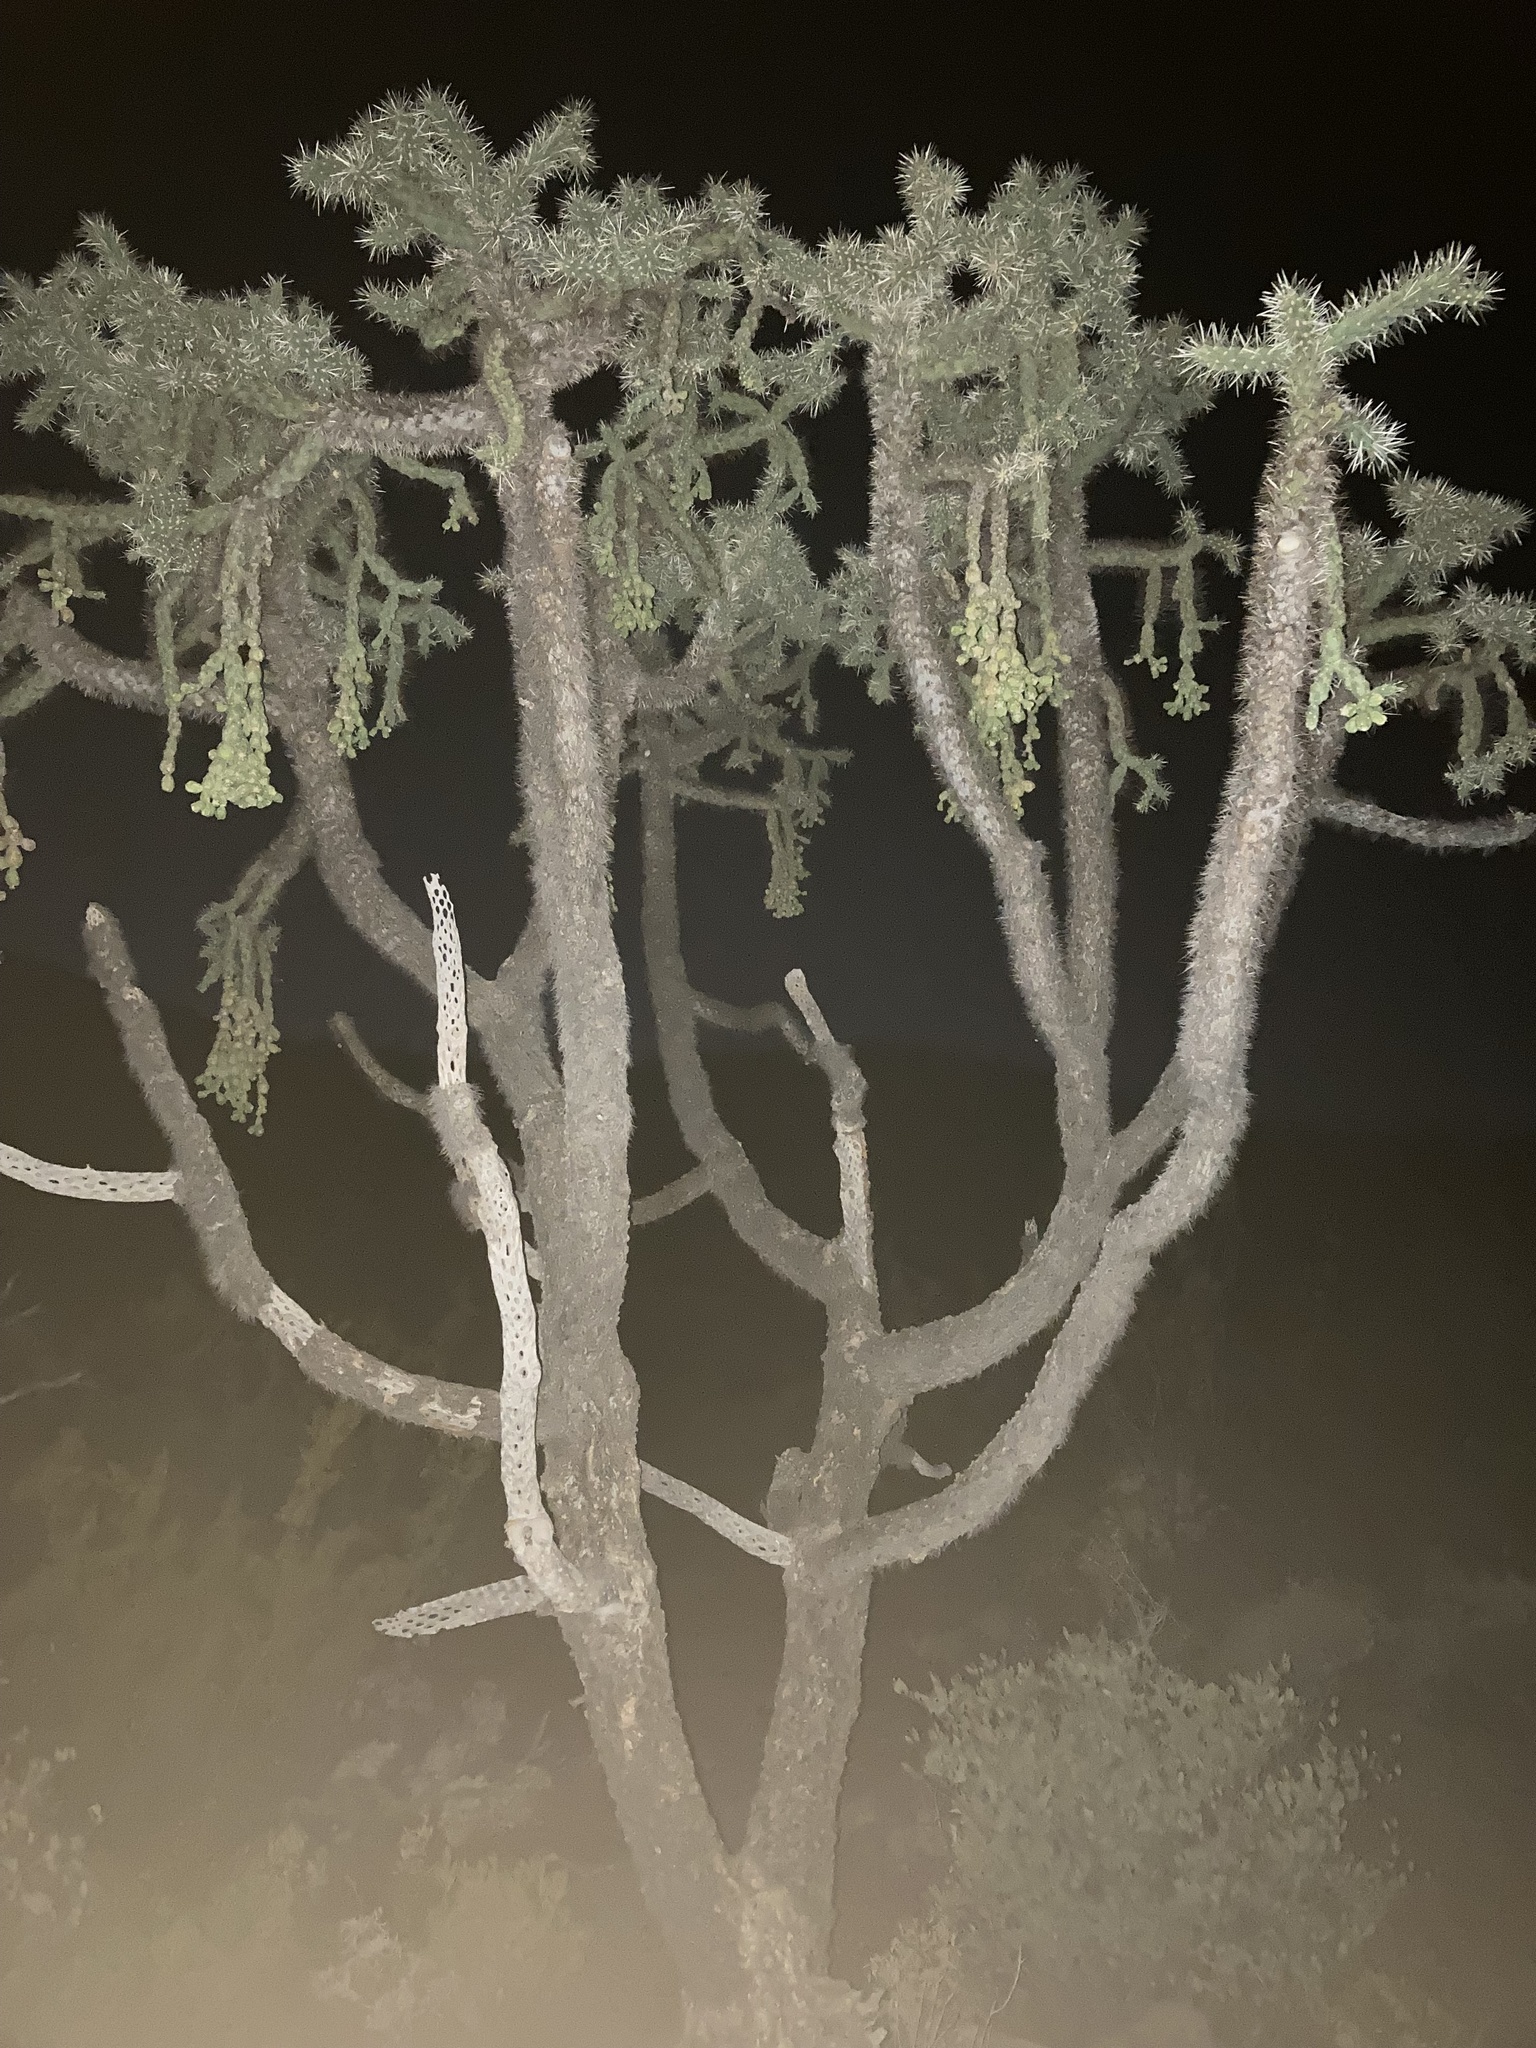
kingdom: Plantae
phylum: Tracheophyta
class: Magnoliopsida
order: Caryophyllales
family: Cactaceae
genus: Cylindropuntia
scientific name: Cylindropuntia fulgida
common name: Jumping cholla
